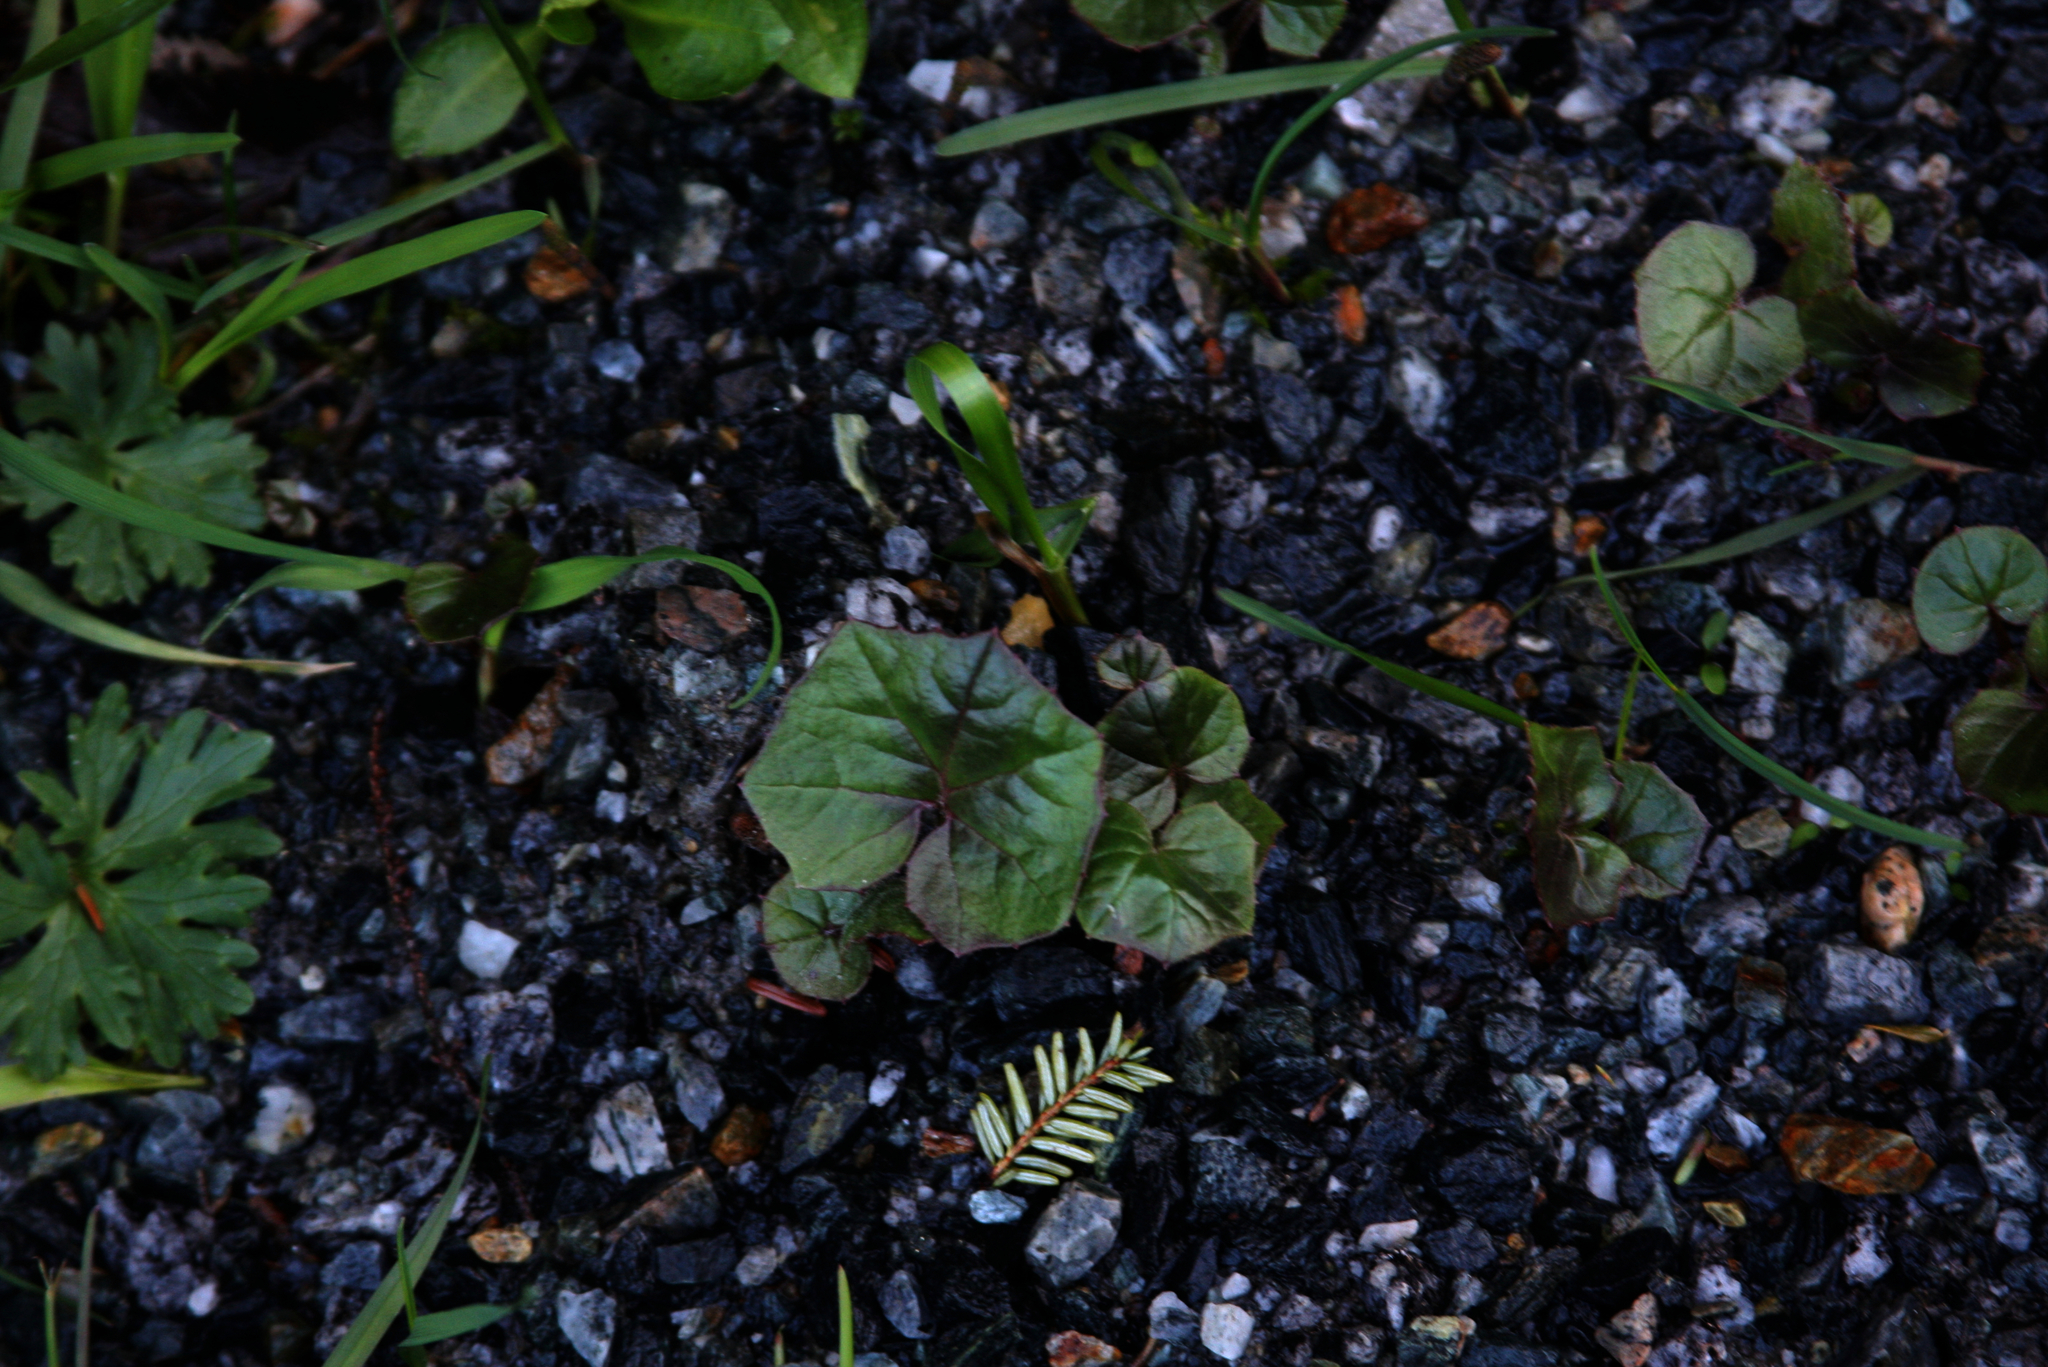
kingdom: Plantae
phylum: Tracheophyta
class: Magnoliopsida
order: Asterales
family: Asteraceae
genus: Tussilago
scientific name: Tussilago farfara
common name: Coltsfoot
